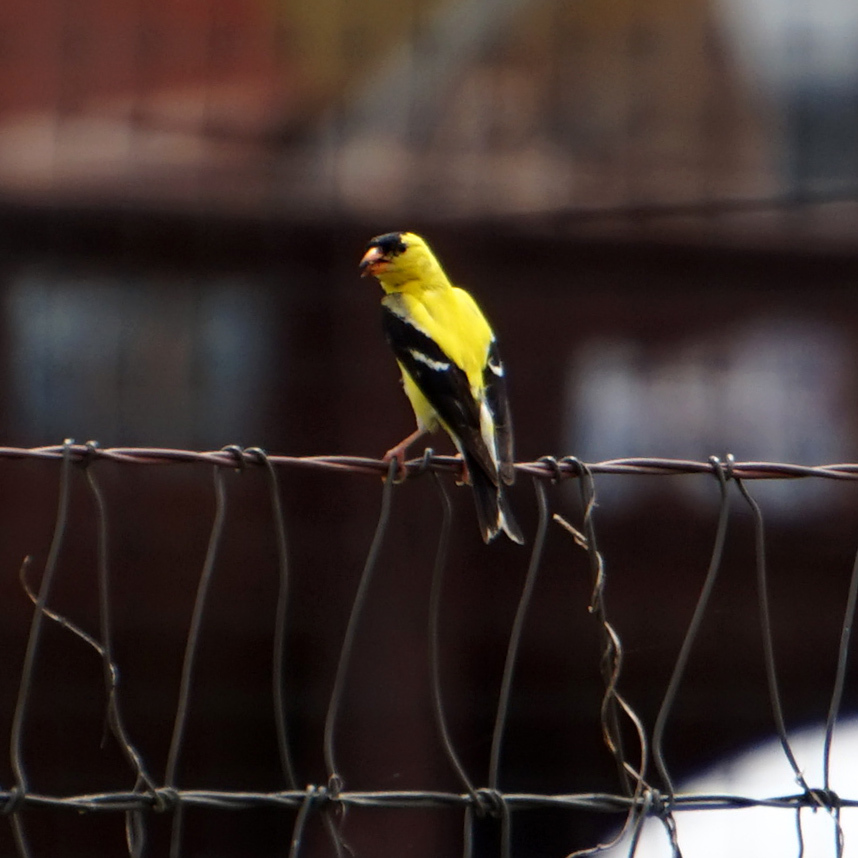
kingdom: Animalia
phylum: Chordata
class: Aves
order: Passeriformes
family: Fringillidae
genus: Spinus
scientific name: Spinus tristis
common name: American goldfinch
